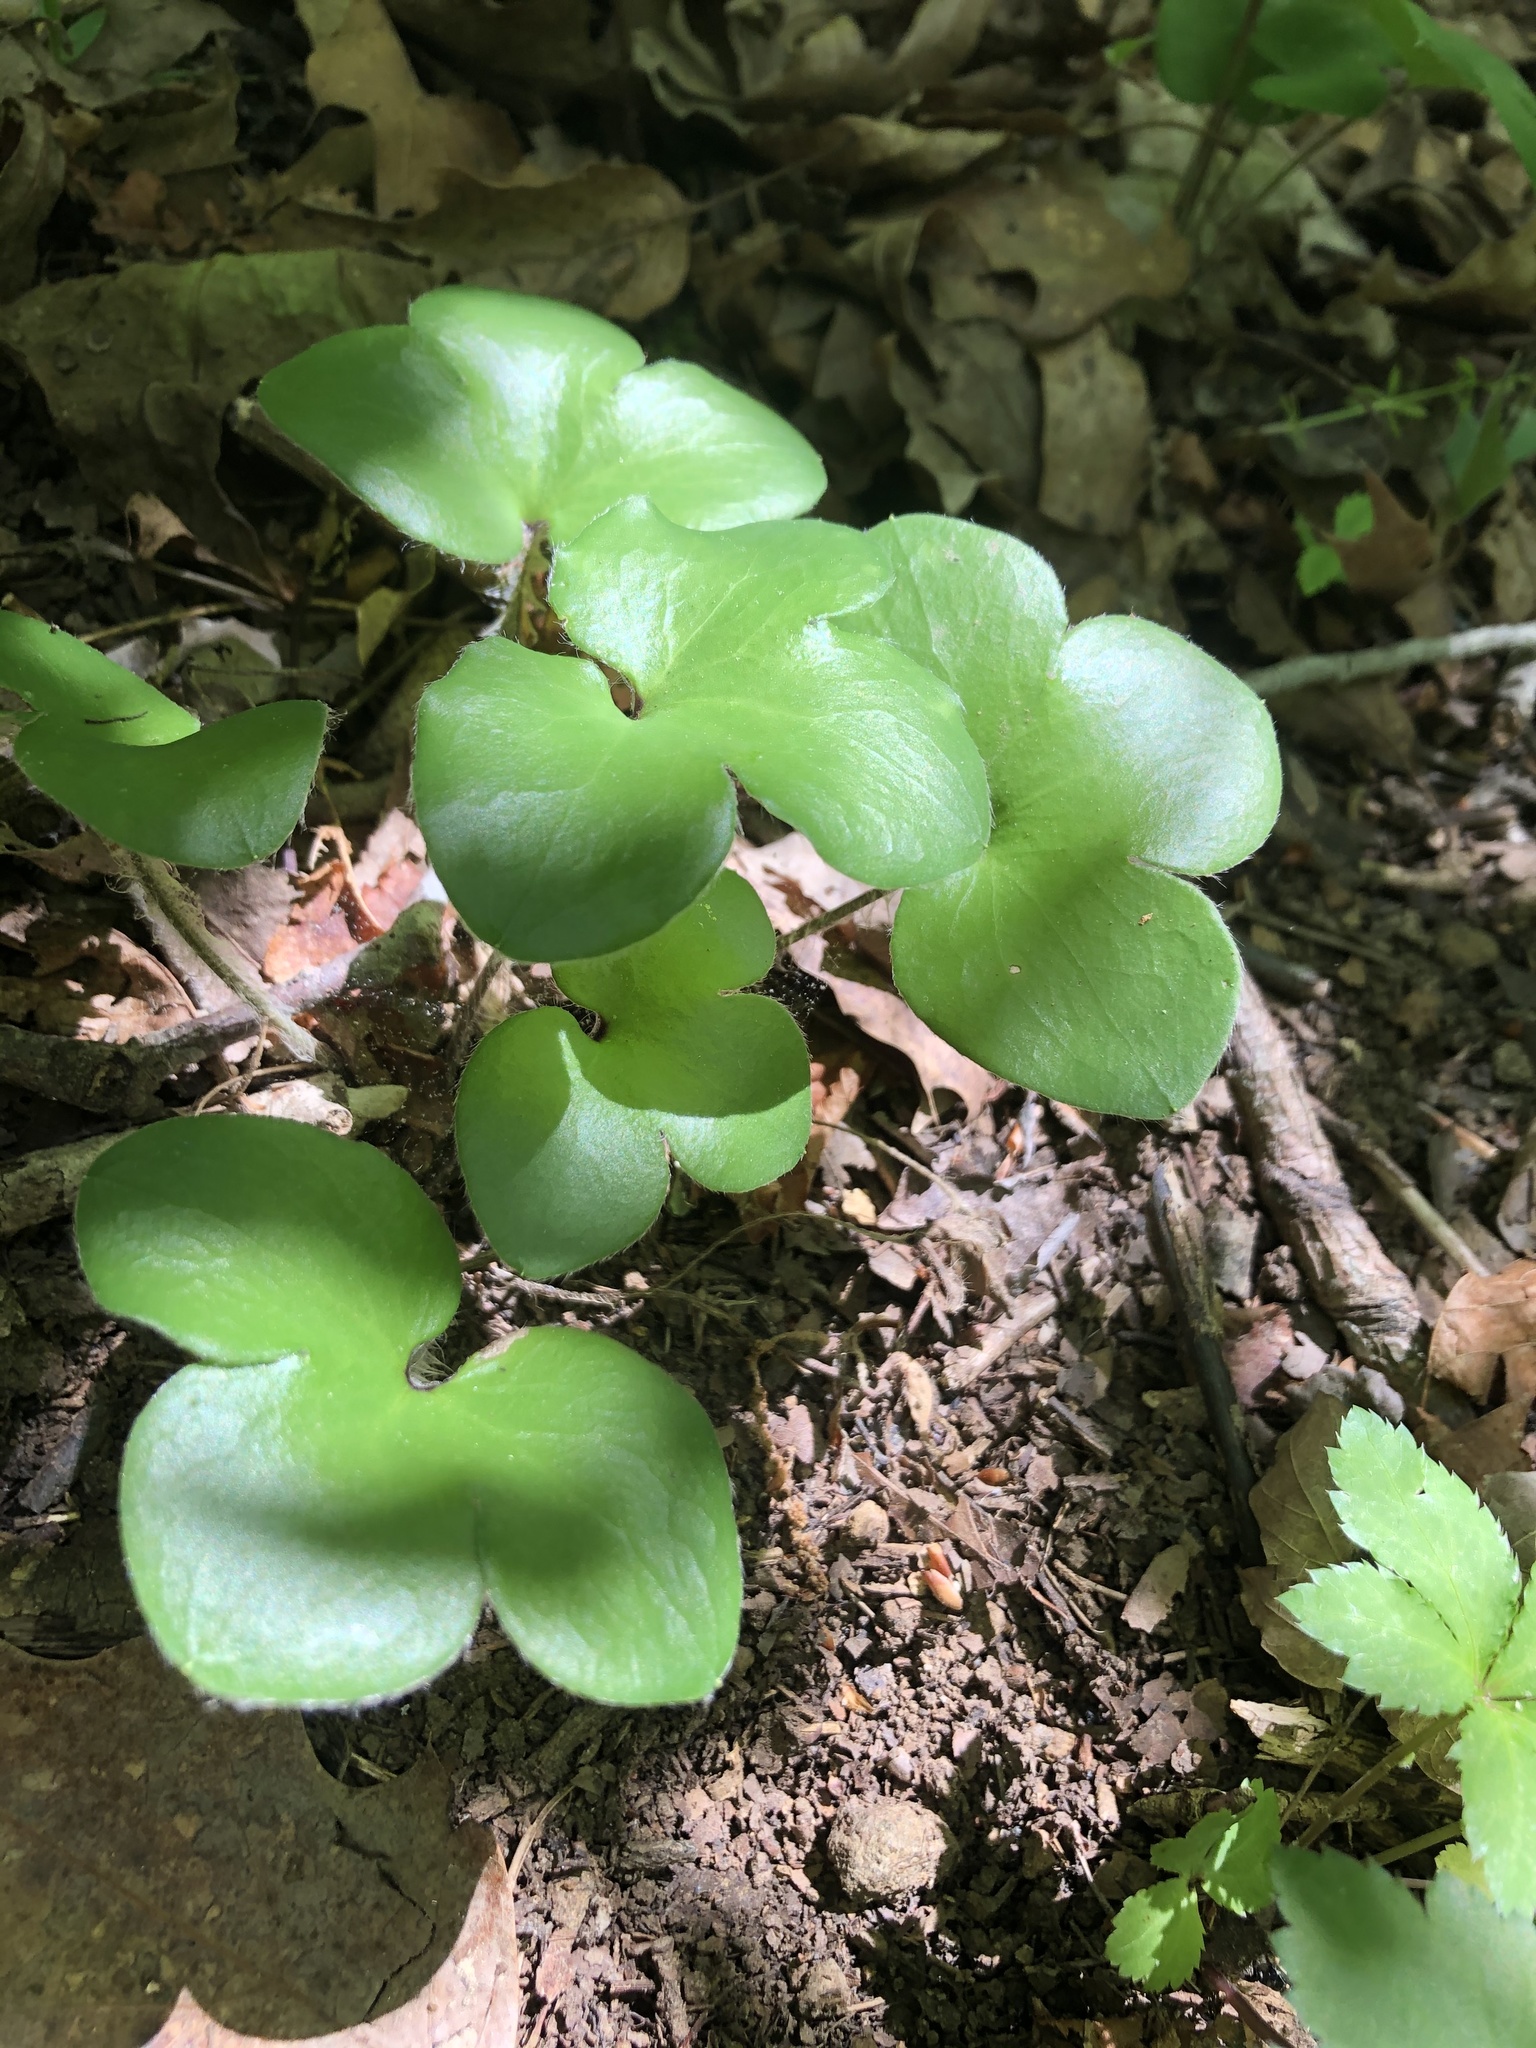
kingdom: Plantae
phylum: Tracheophyta
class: Magnoliopsida
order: Ranunculales
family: Ranunculaceae
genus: Hepatica
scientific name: Hepatica americana
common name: American hepatica
